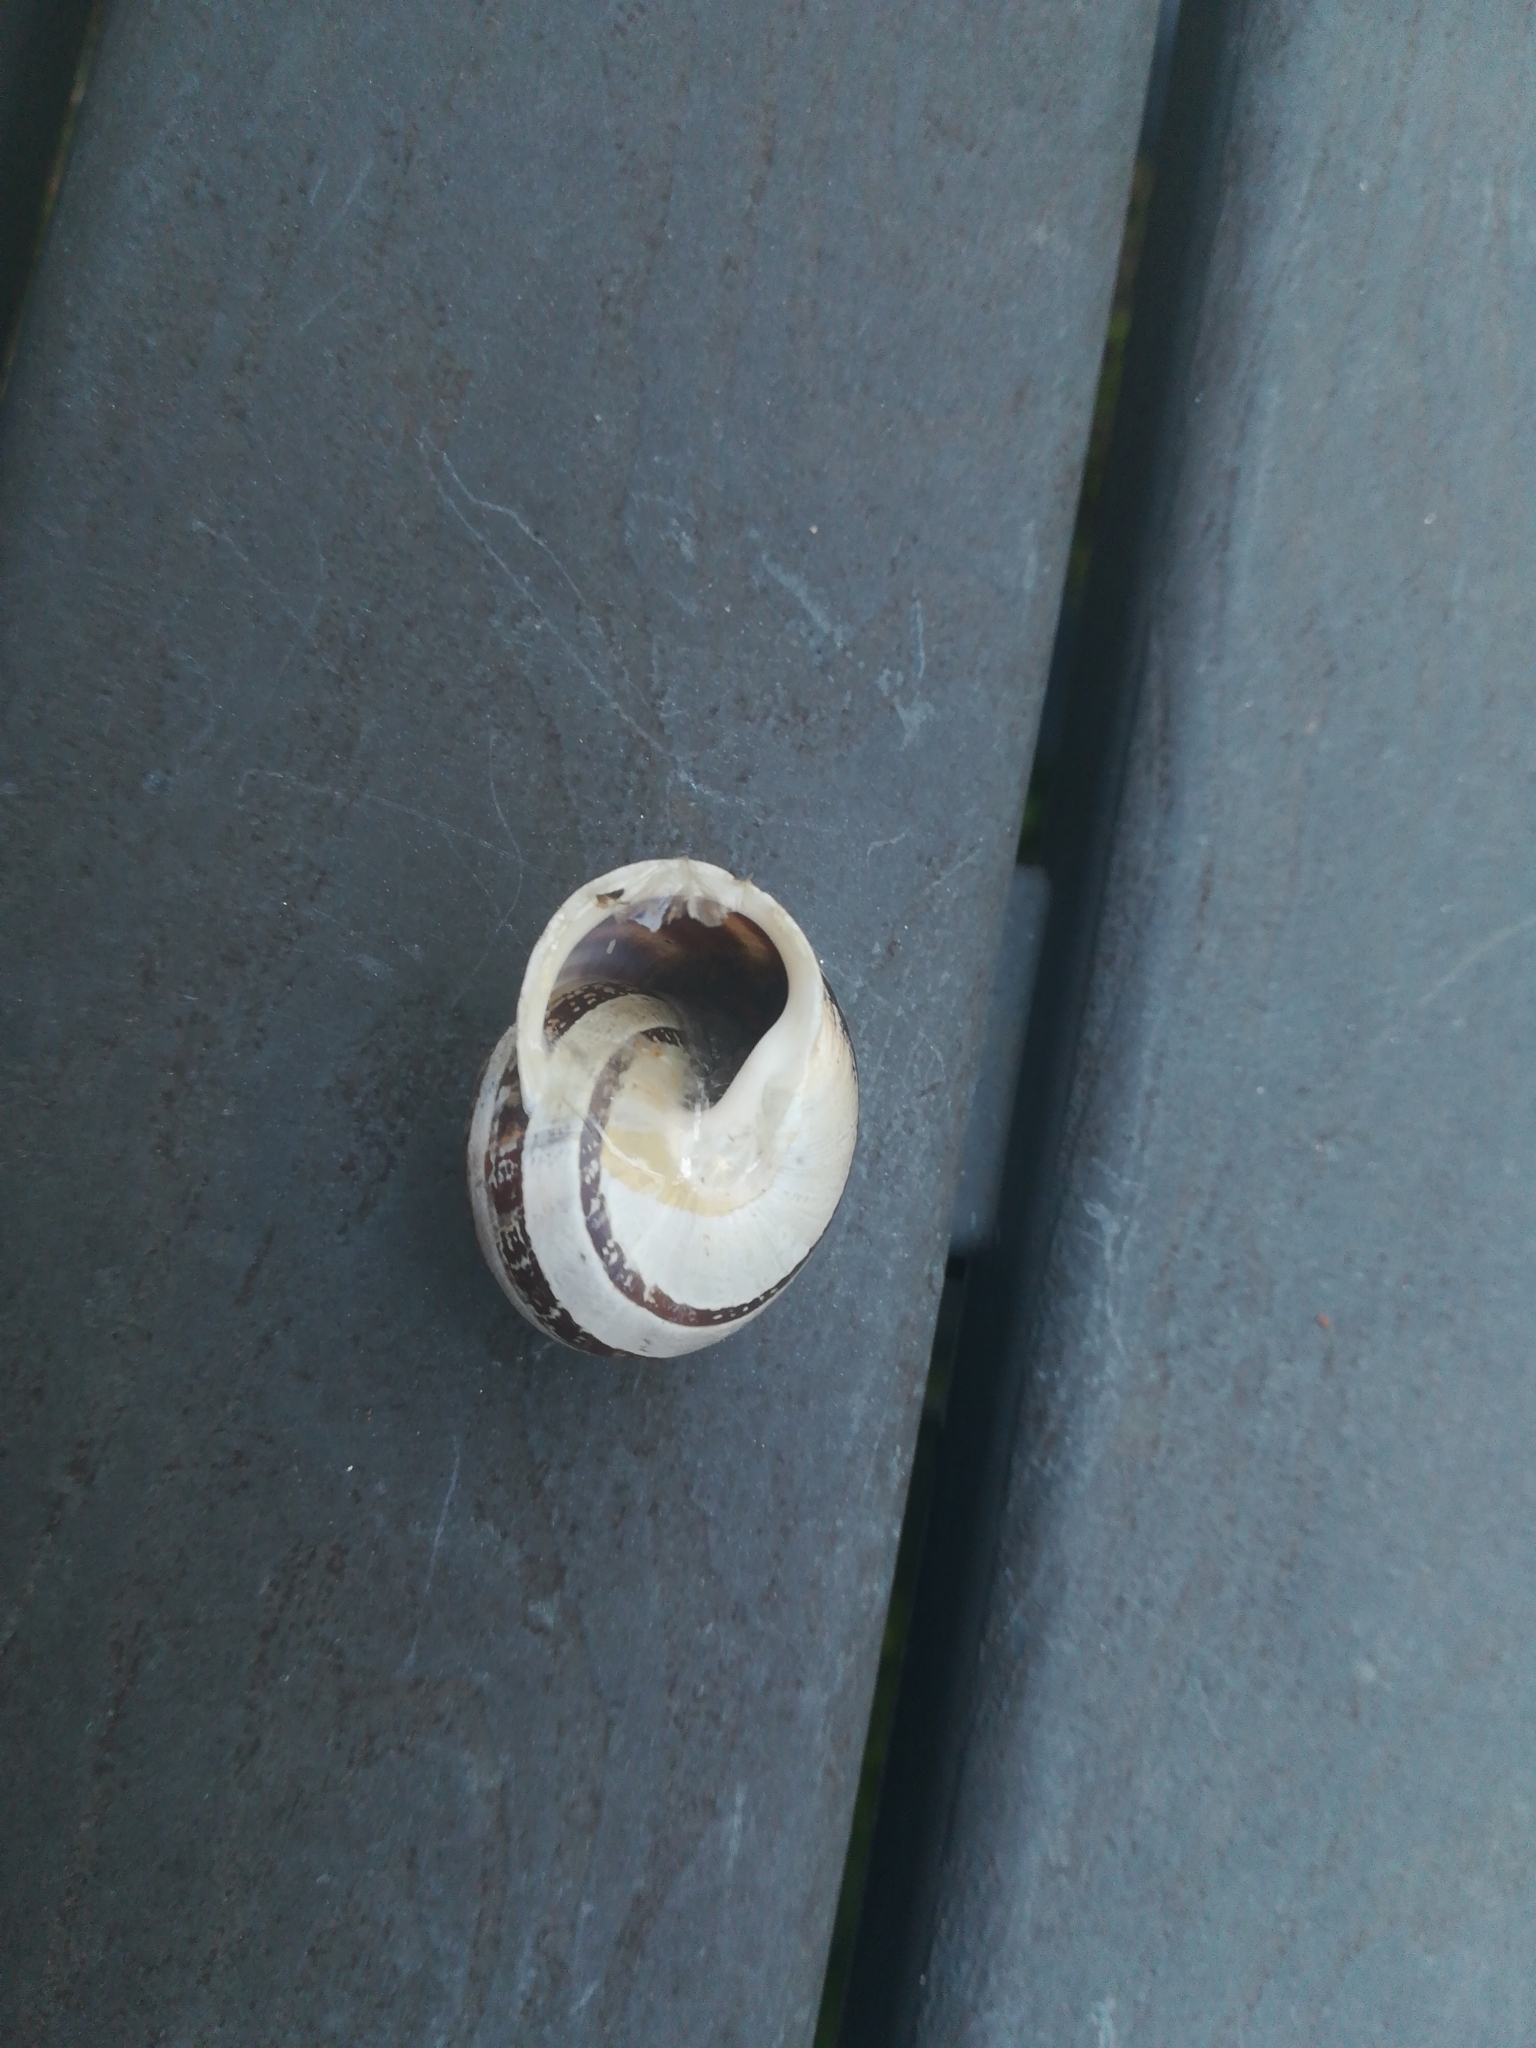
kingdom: Animalia
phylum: Mollusca
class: Gastropoda
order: Stylommatophora
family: Helicidae
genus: Eobania
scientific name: Eobania vermiculata
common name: Chocolateband snail
